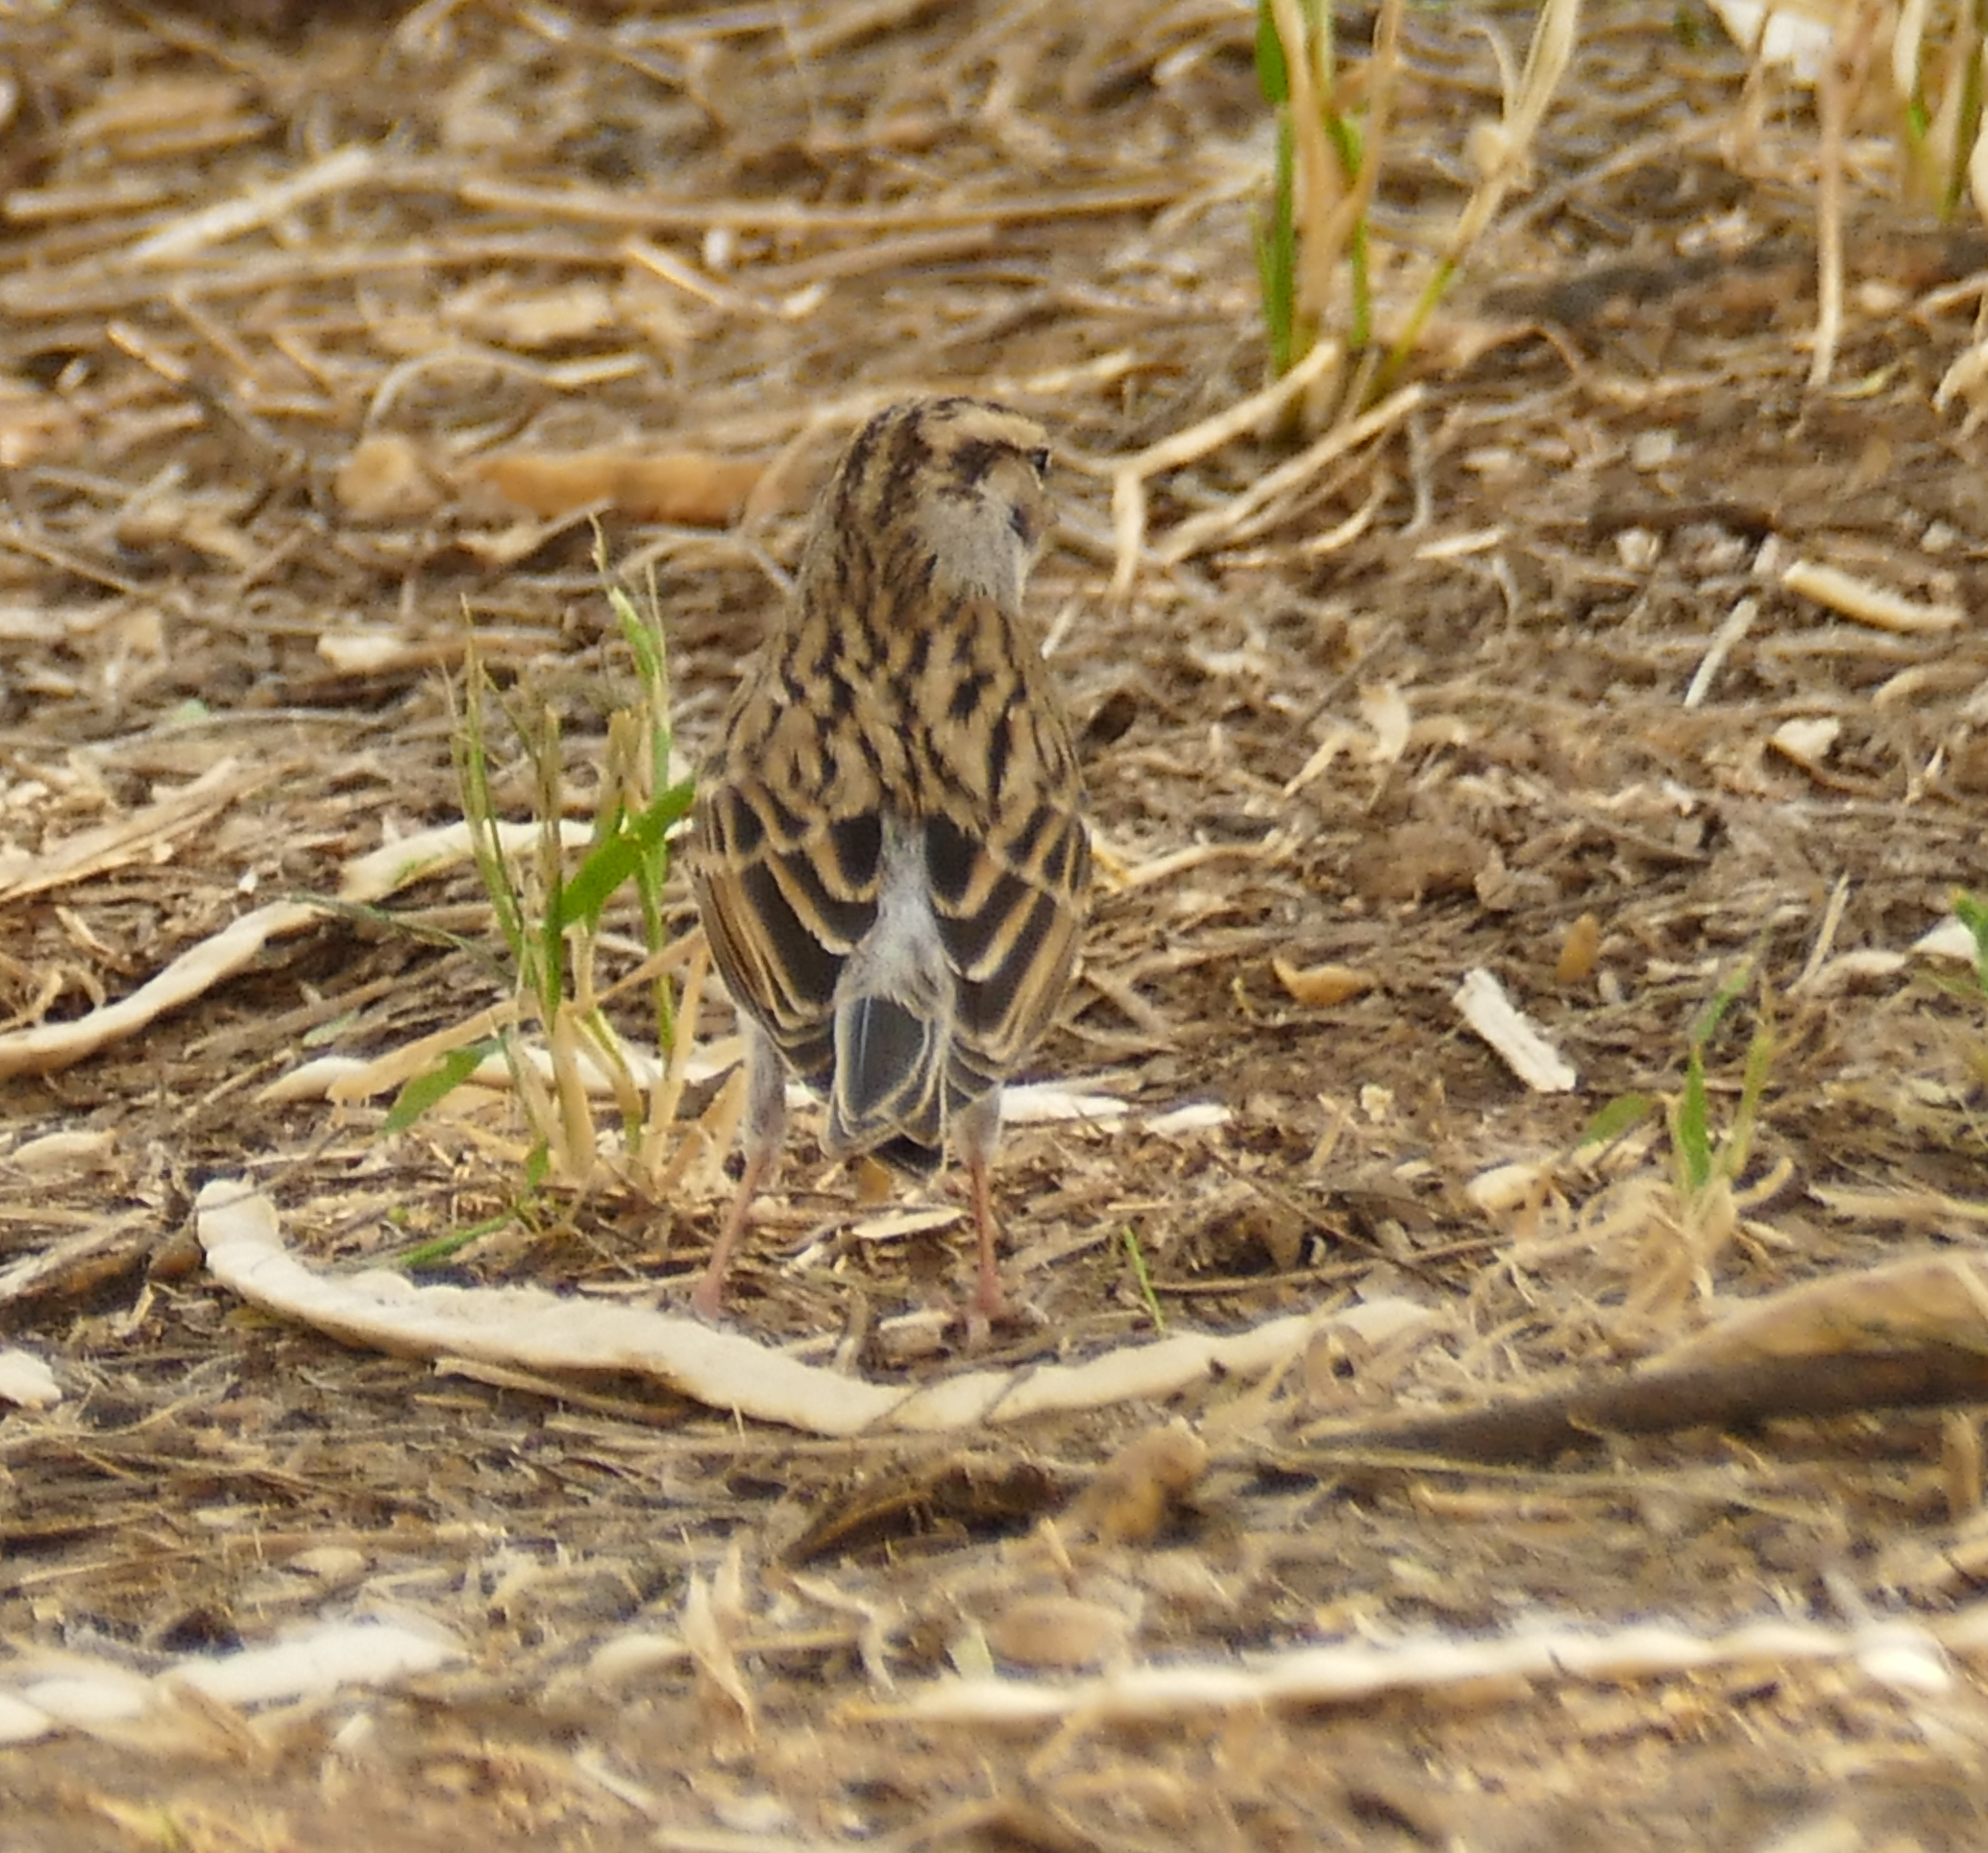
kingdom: Animalia
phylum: Chordata
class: Aves
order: Passeriformes
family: Passerellidae
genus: Spizella
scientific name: Spizella passerina
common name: Chipping sparrow
